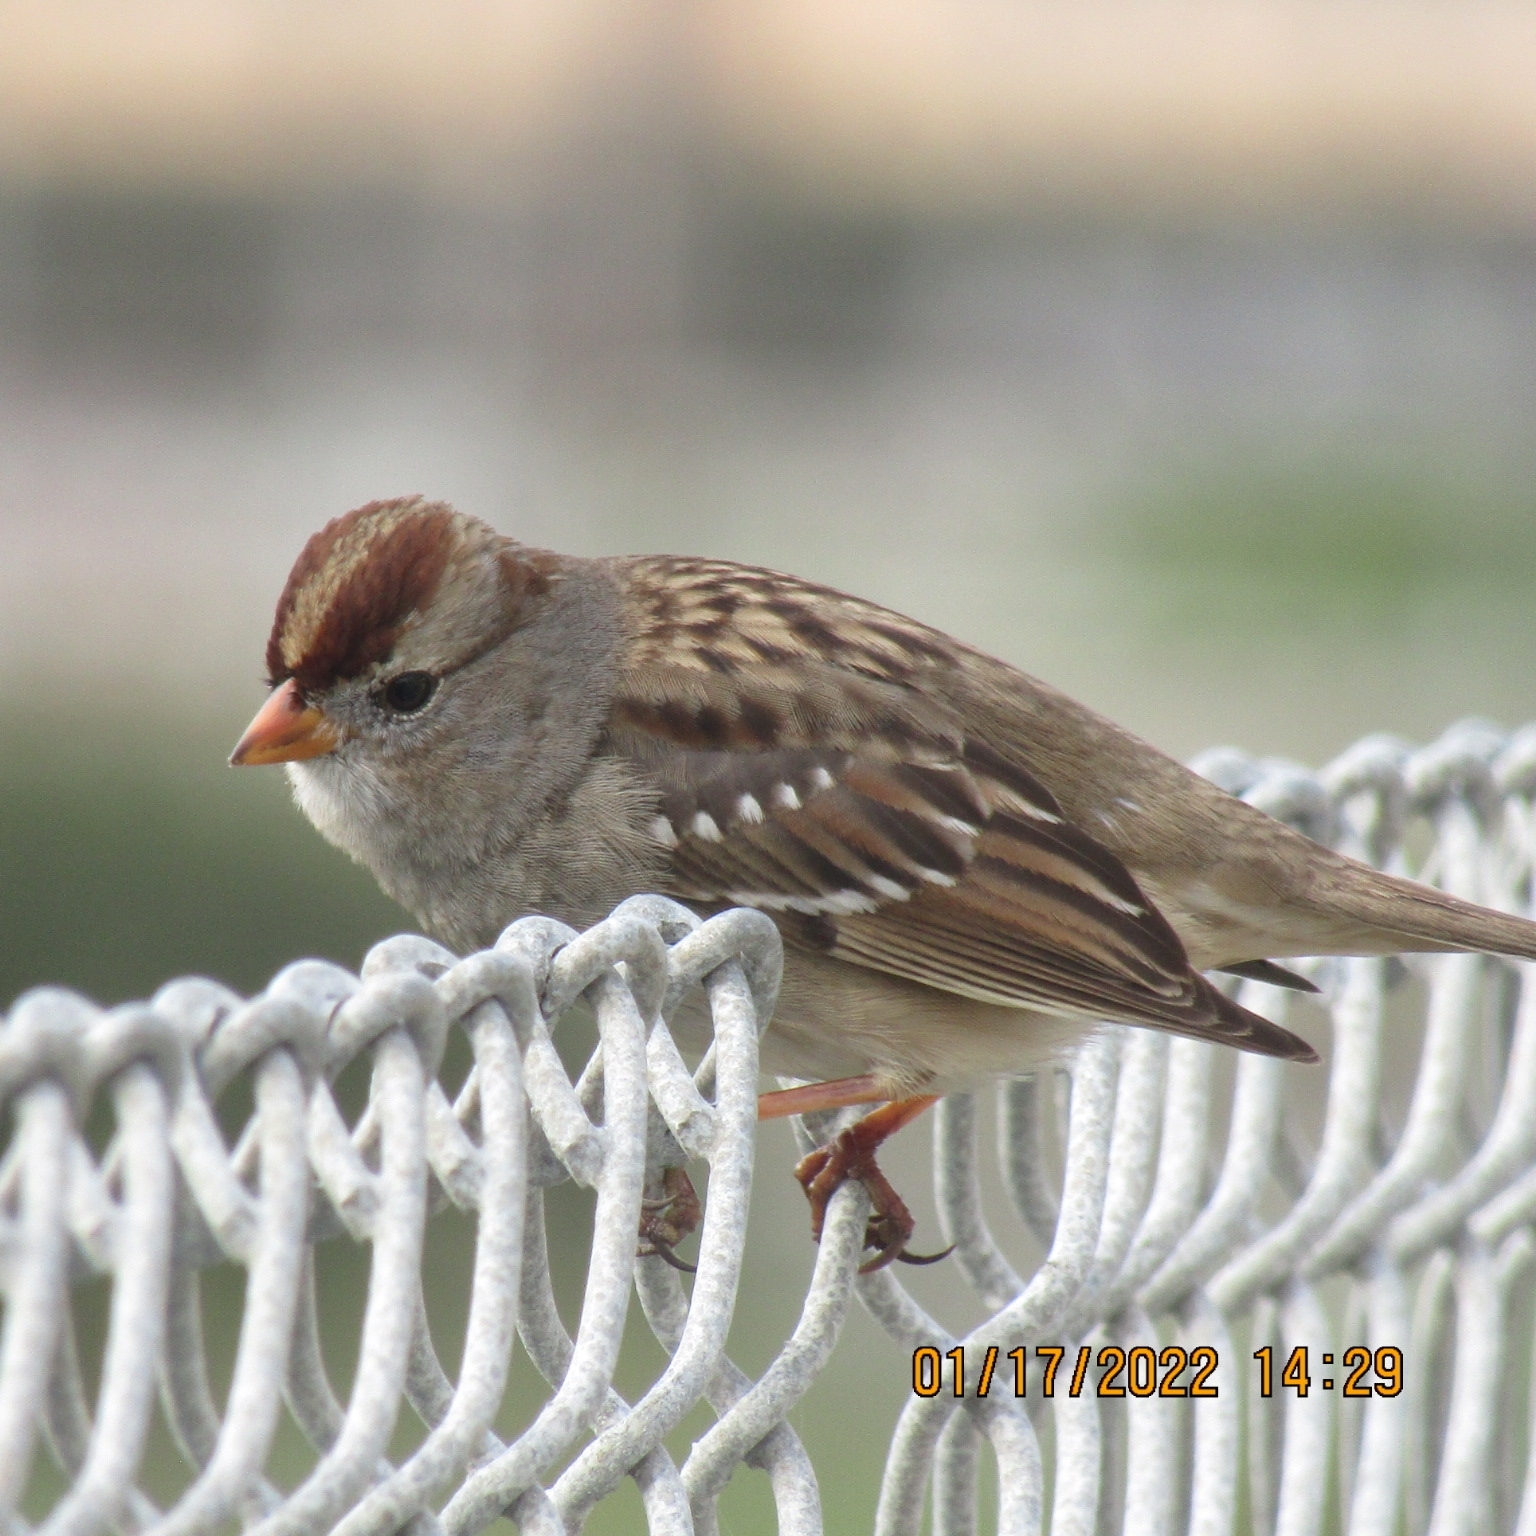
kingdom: Animalia
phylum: Chordata
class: Aves
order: Passeriformes
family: Passerellidae
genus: Zonotrichia
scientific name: Zonotrichia leucophrys
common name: White-crowned sparrow
